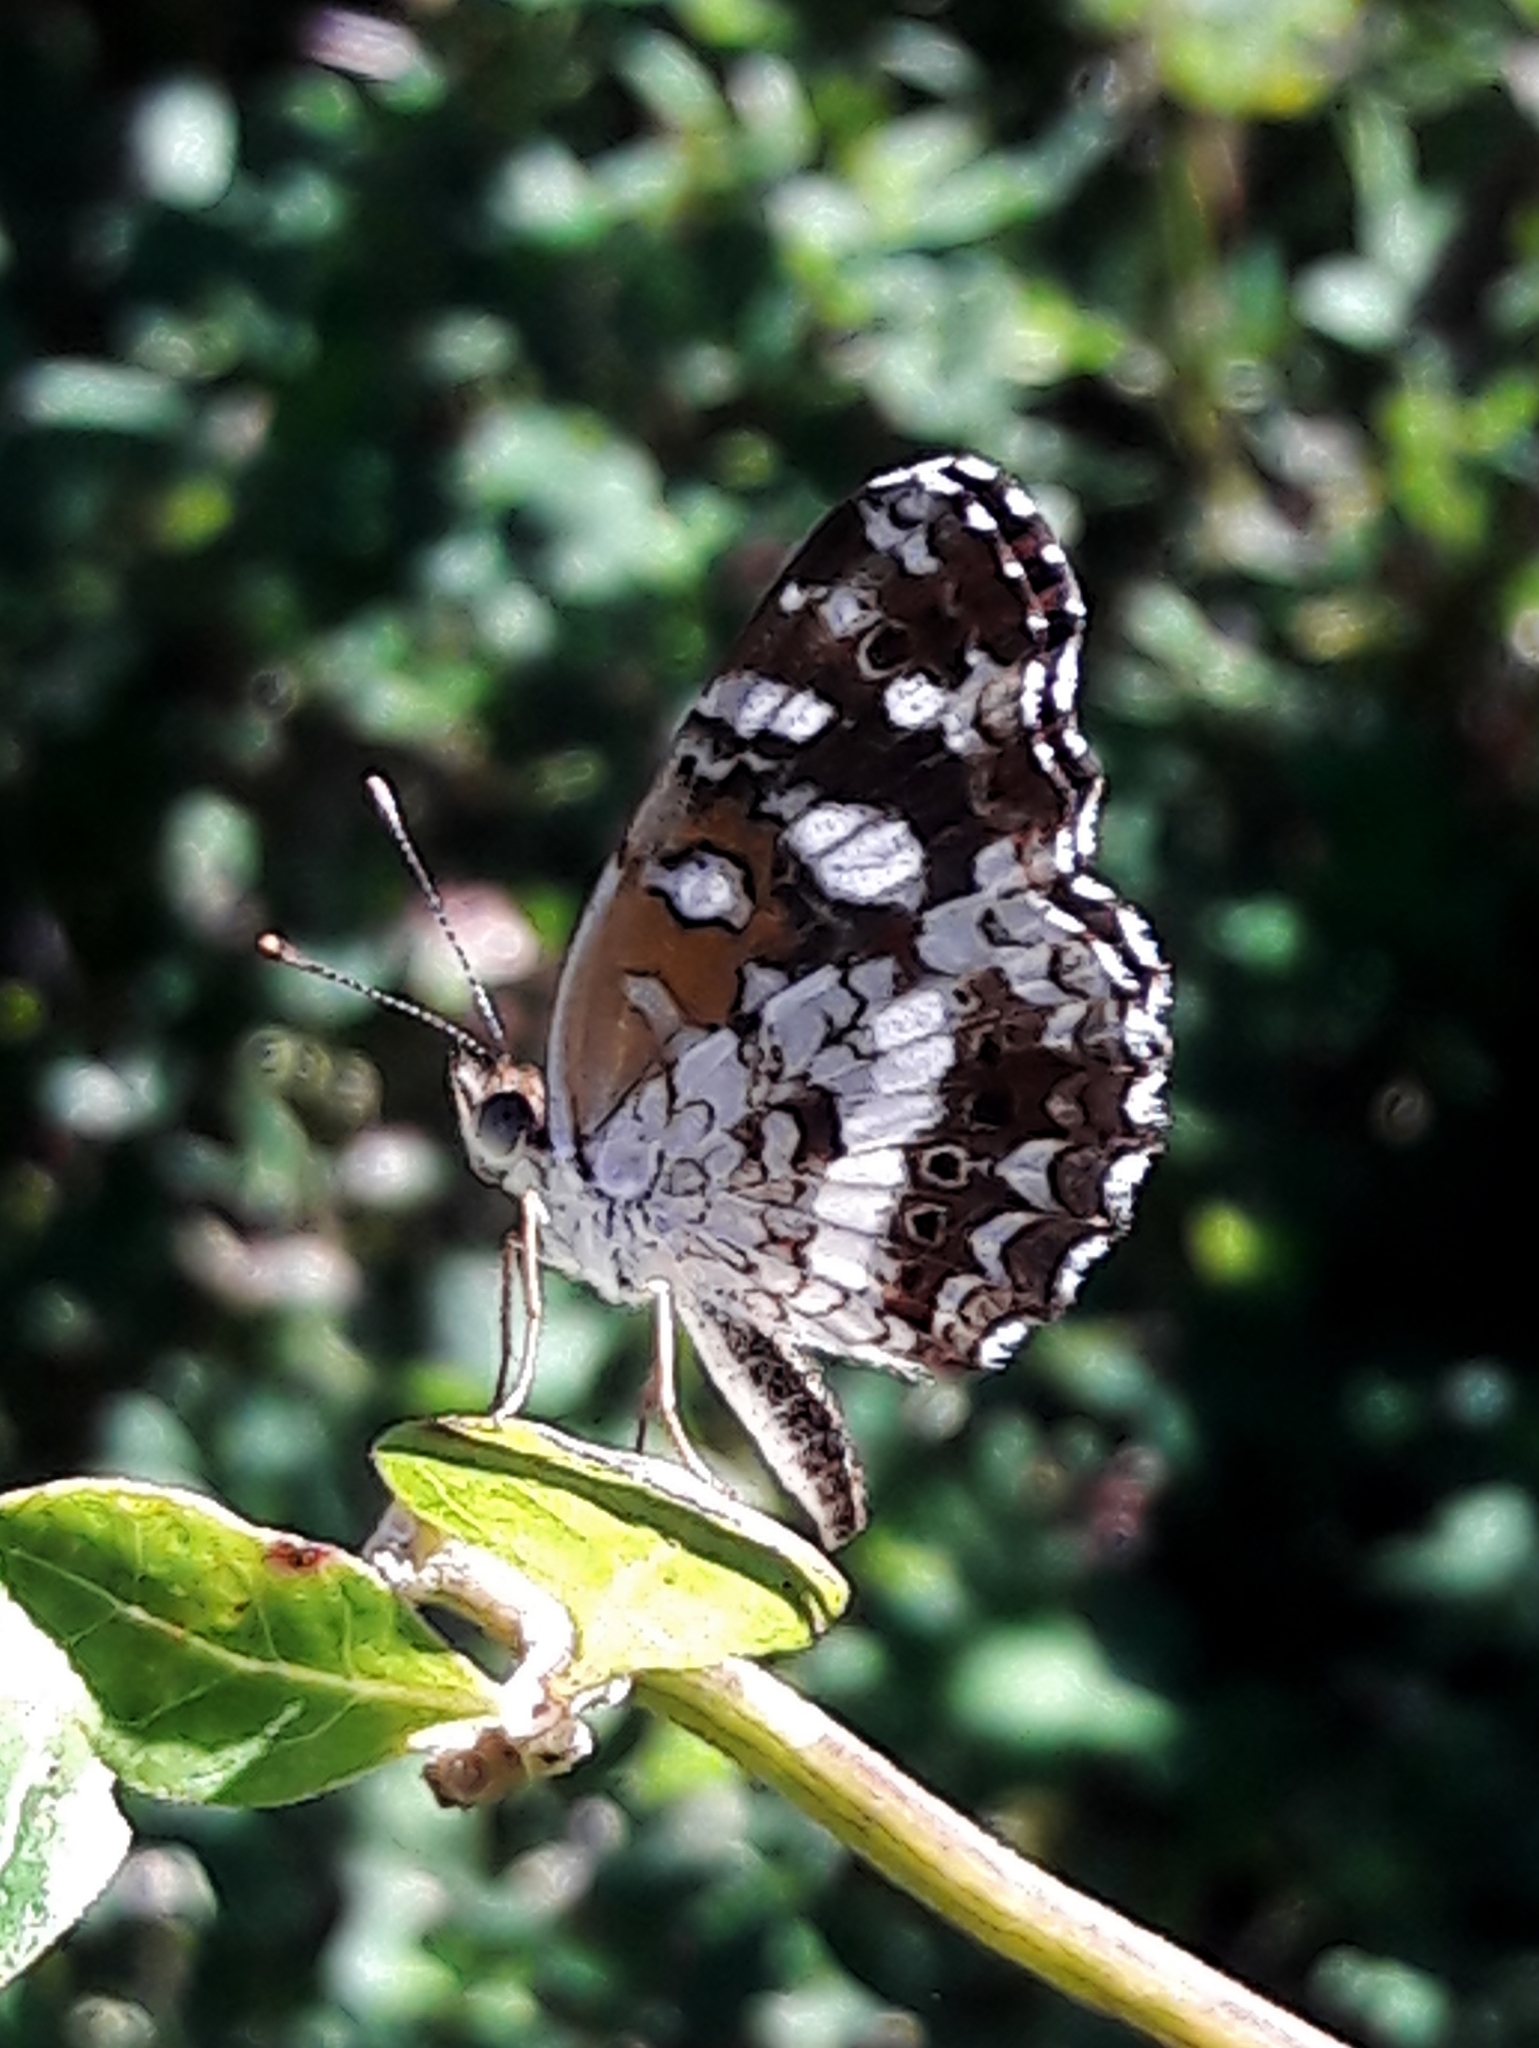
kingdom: Animalia
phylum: Arthropoda
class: Insecta
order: Lepidoptera
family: Nymphalidae
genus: Ortilia
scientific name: Ortilia ithra
